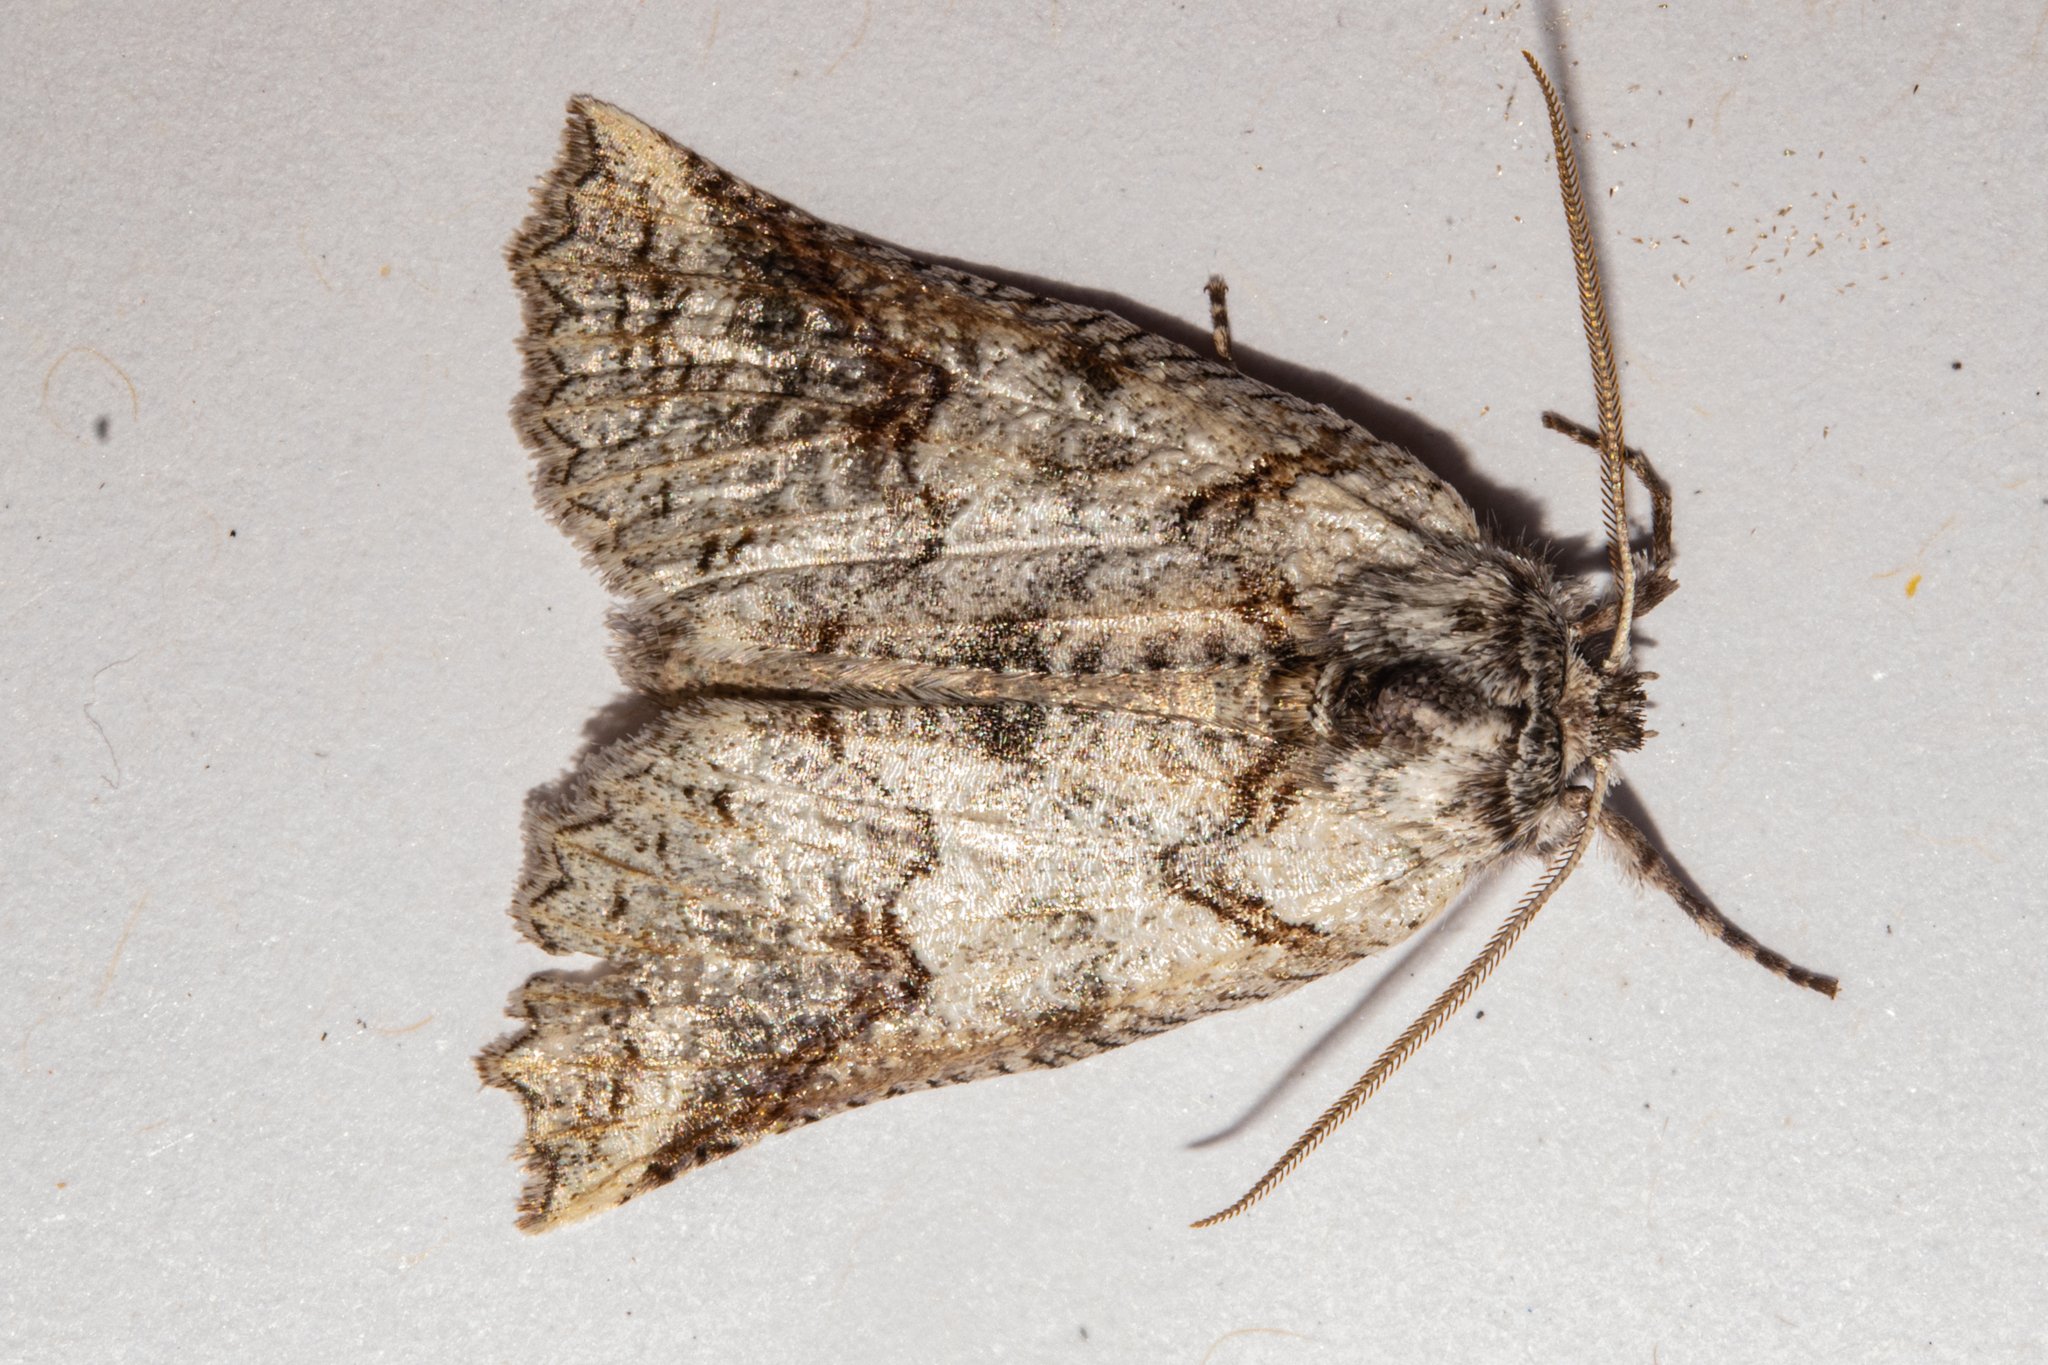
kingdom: Animalia
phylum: Arthropoda
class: Insecta
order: Lepidoptera
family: Geometridae
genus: Declana
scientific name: Declana
